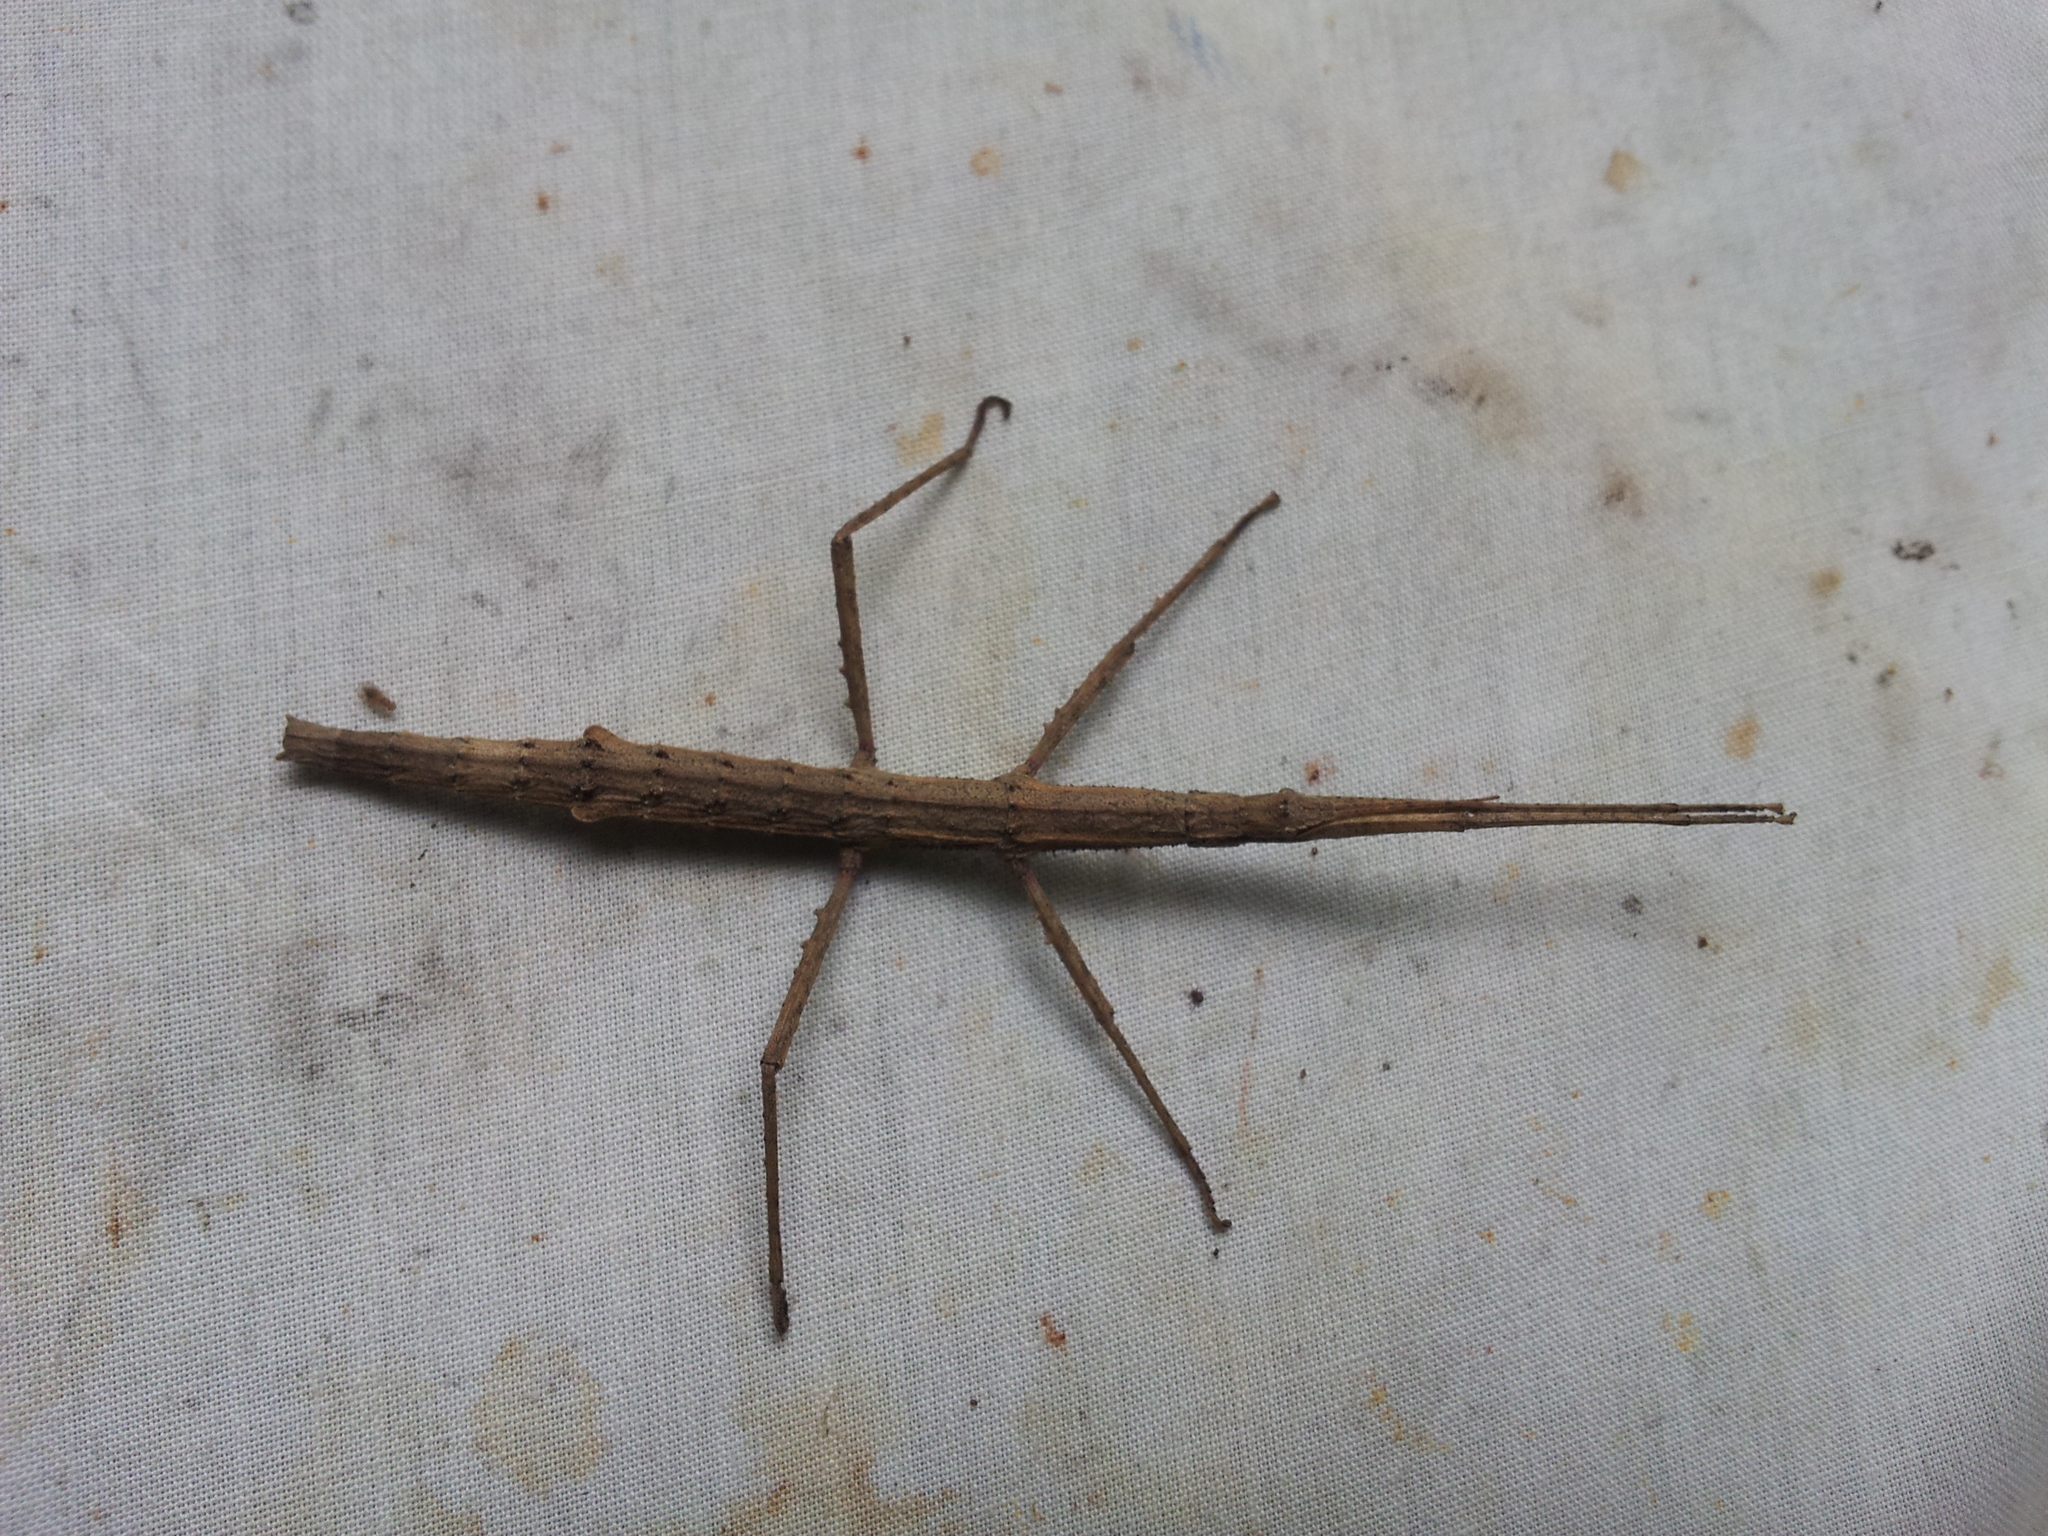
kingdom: Animalia
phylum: Arthropoda
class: Insecta
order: Phasmida
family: Phasmatidae
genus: Tectarchus
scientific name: Tectarchus salebrosus
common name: Lesser rough-skinned stick insect
